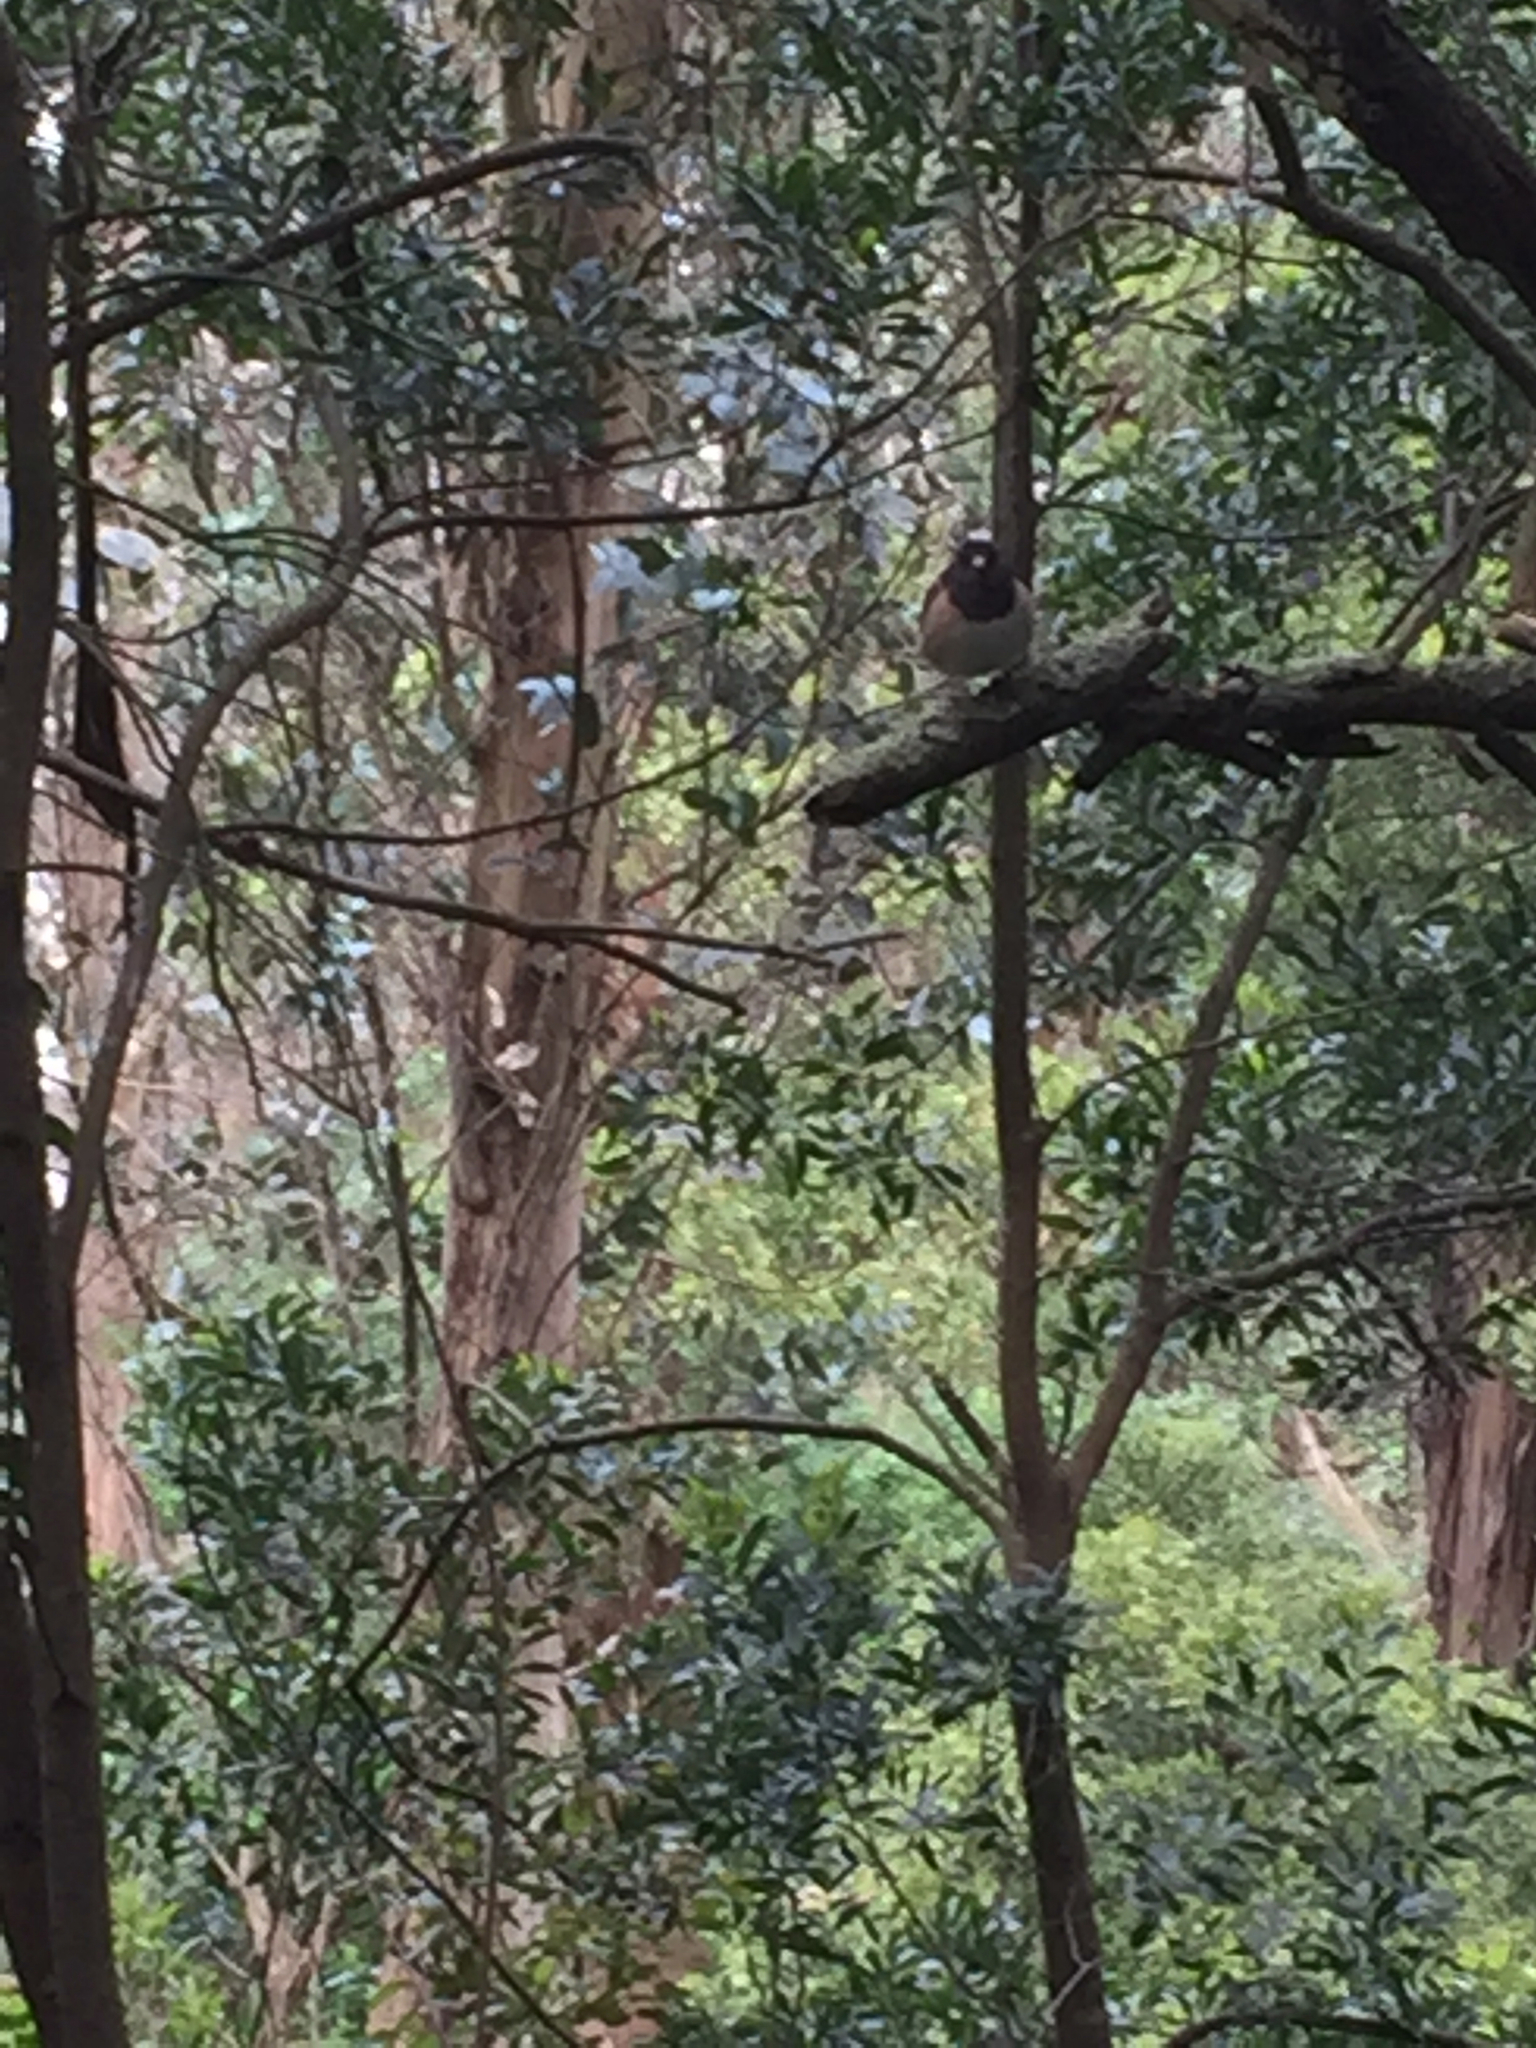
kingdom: Animalia
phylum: Chordata
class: Aves
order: Passeriformes
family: Passerellidae
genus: Junco
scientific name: Junco hyemalis
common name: Dark-eyed junco
